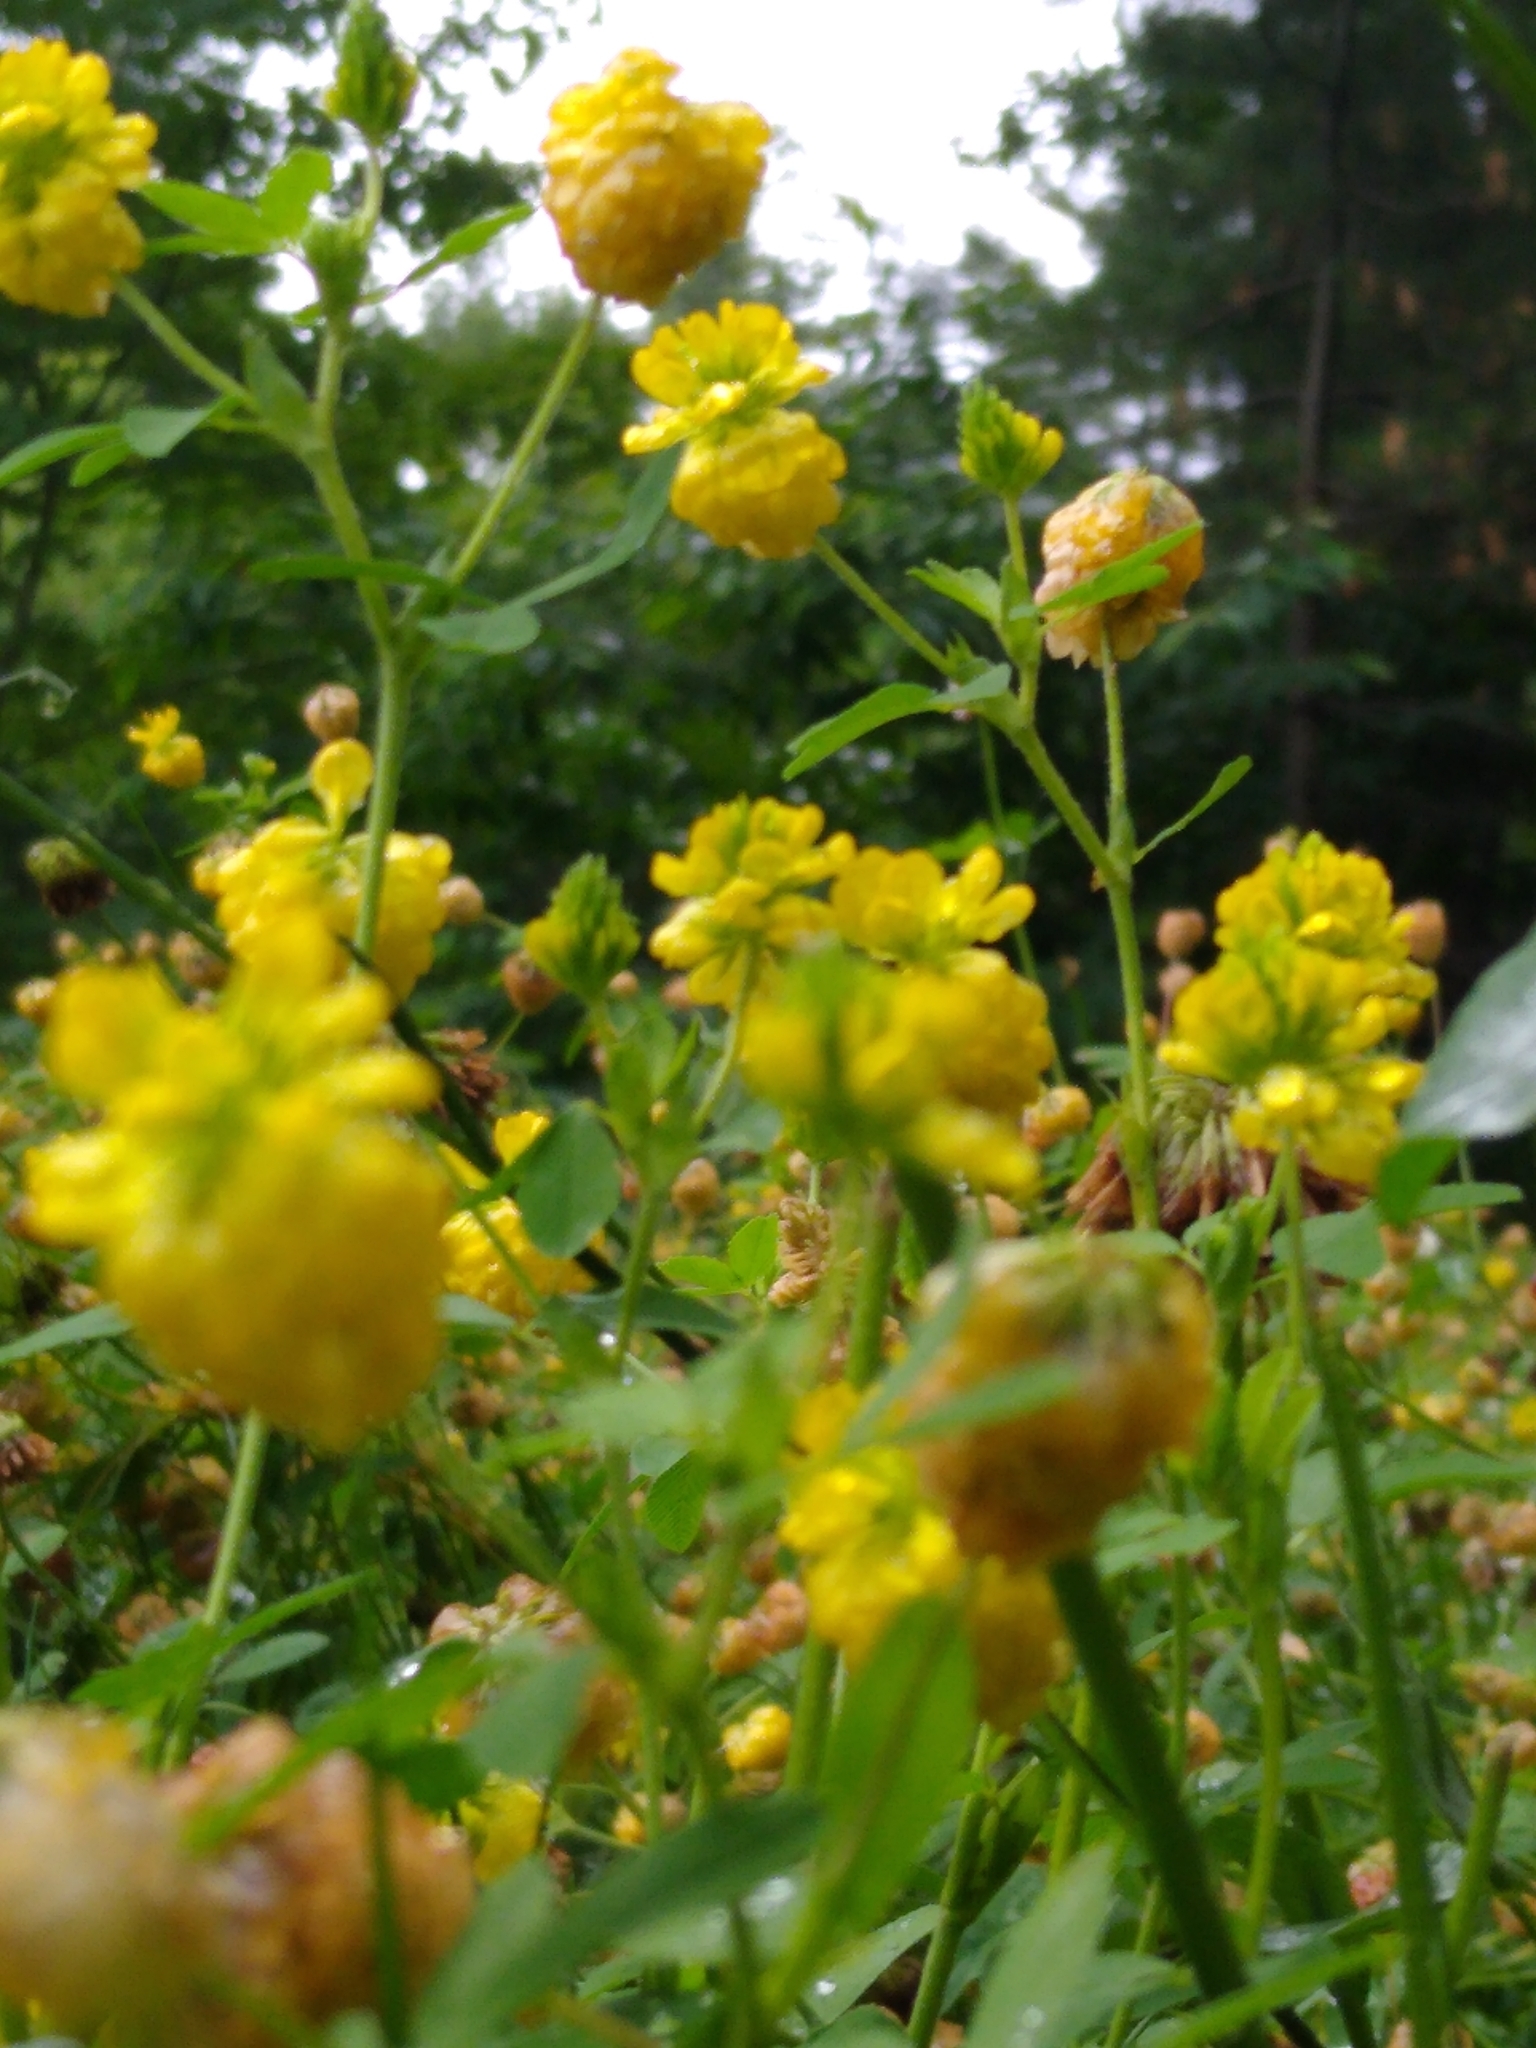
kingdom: Plantae
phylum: Tracheophyta
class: Magnoliopsida
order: Fabales
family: Fabaceae
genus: Trifolium
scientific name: Trifolium aureum
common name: Golden clover
